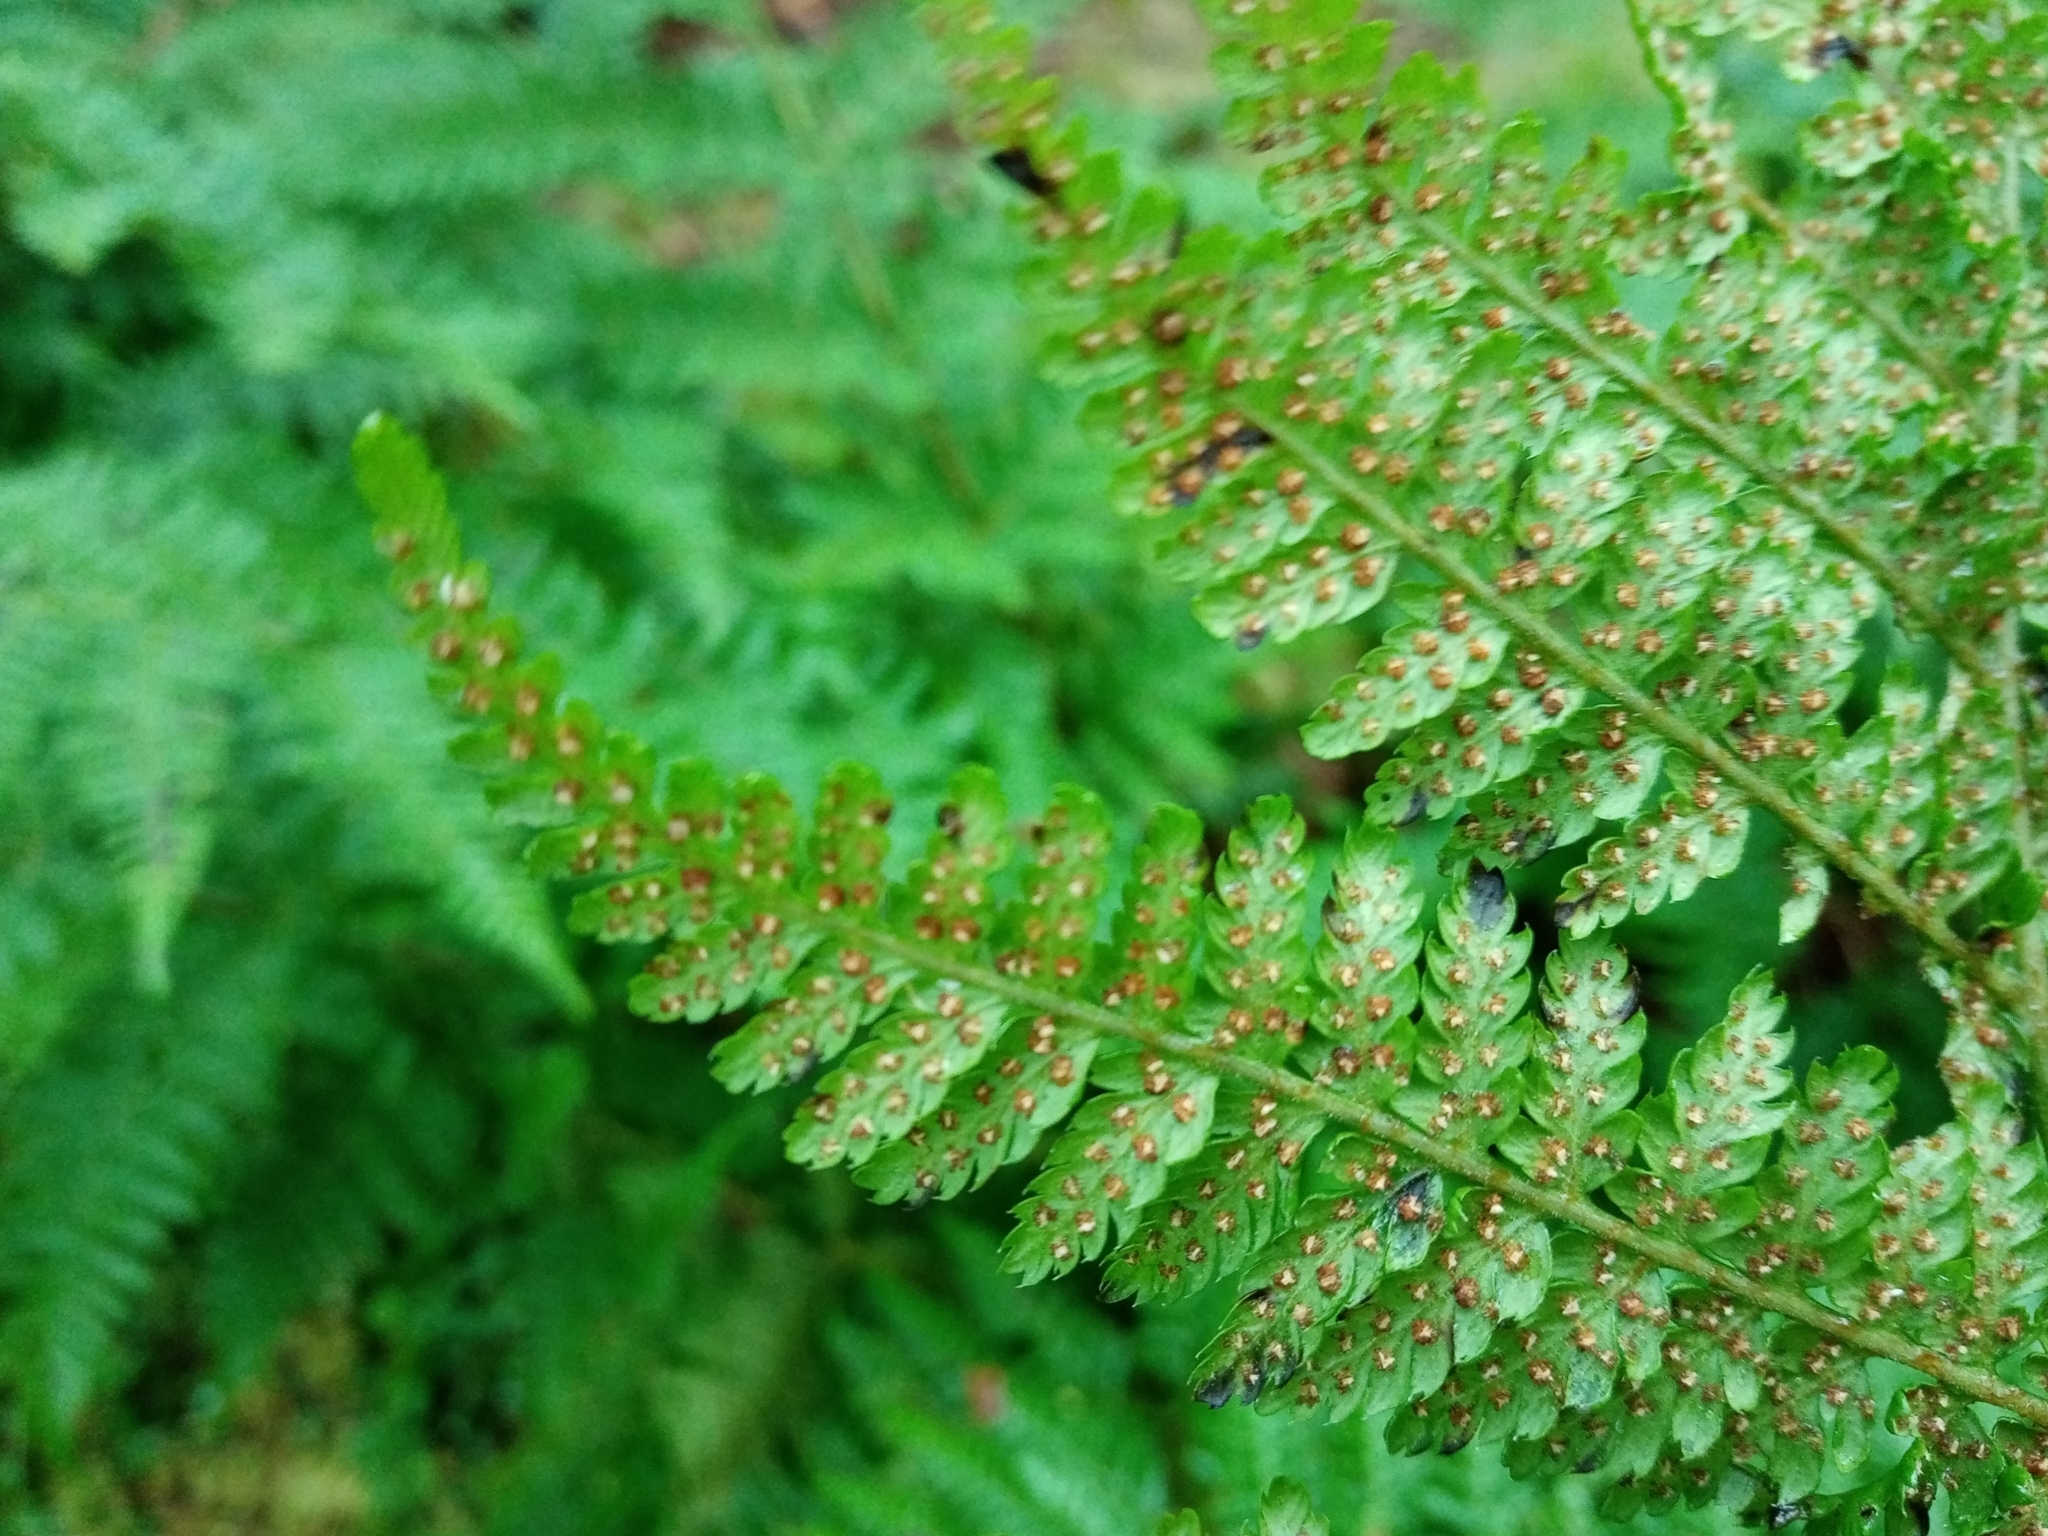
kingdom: Plantae
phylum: Tracheophyta
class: Polypodiopsida
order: Polypodiales
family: Dryopteridaceae
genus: Dryopteris
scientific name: Dryopteris dilatata
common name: Broad buckler-fern
